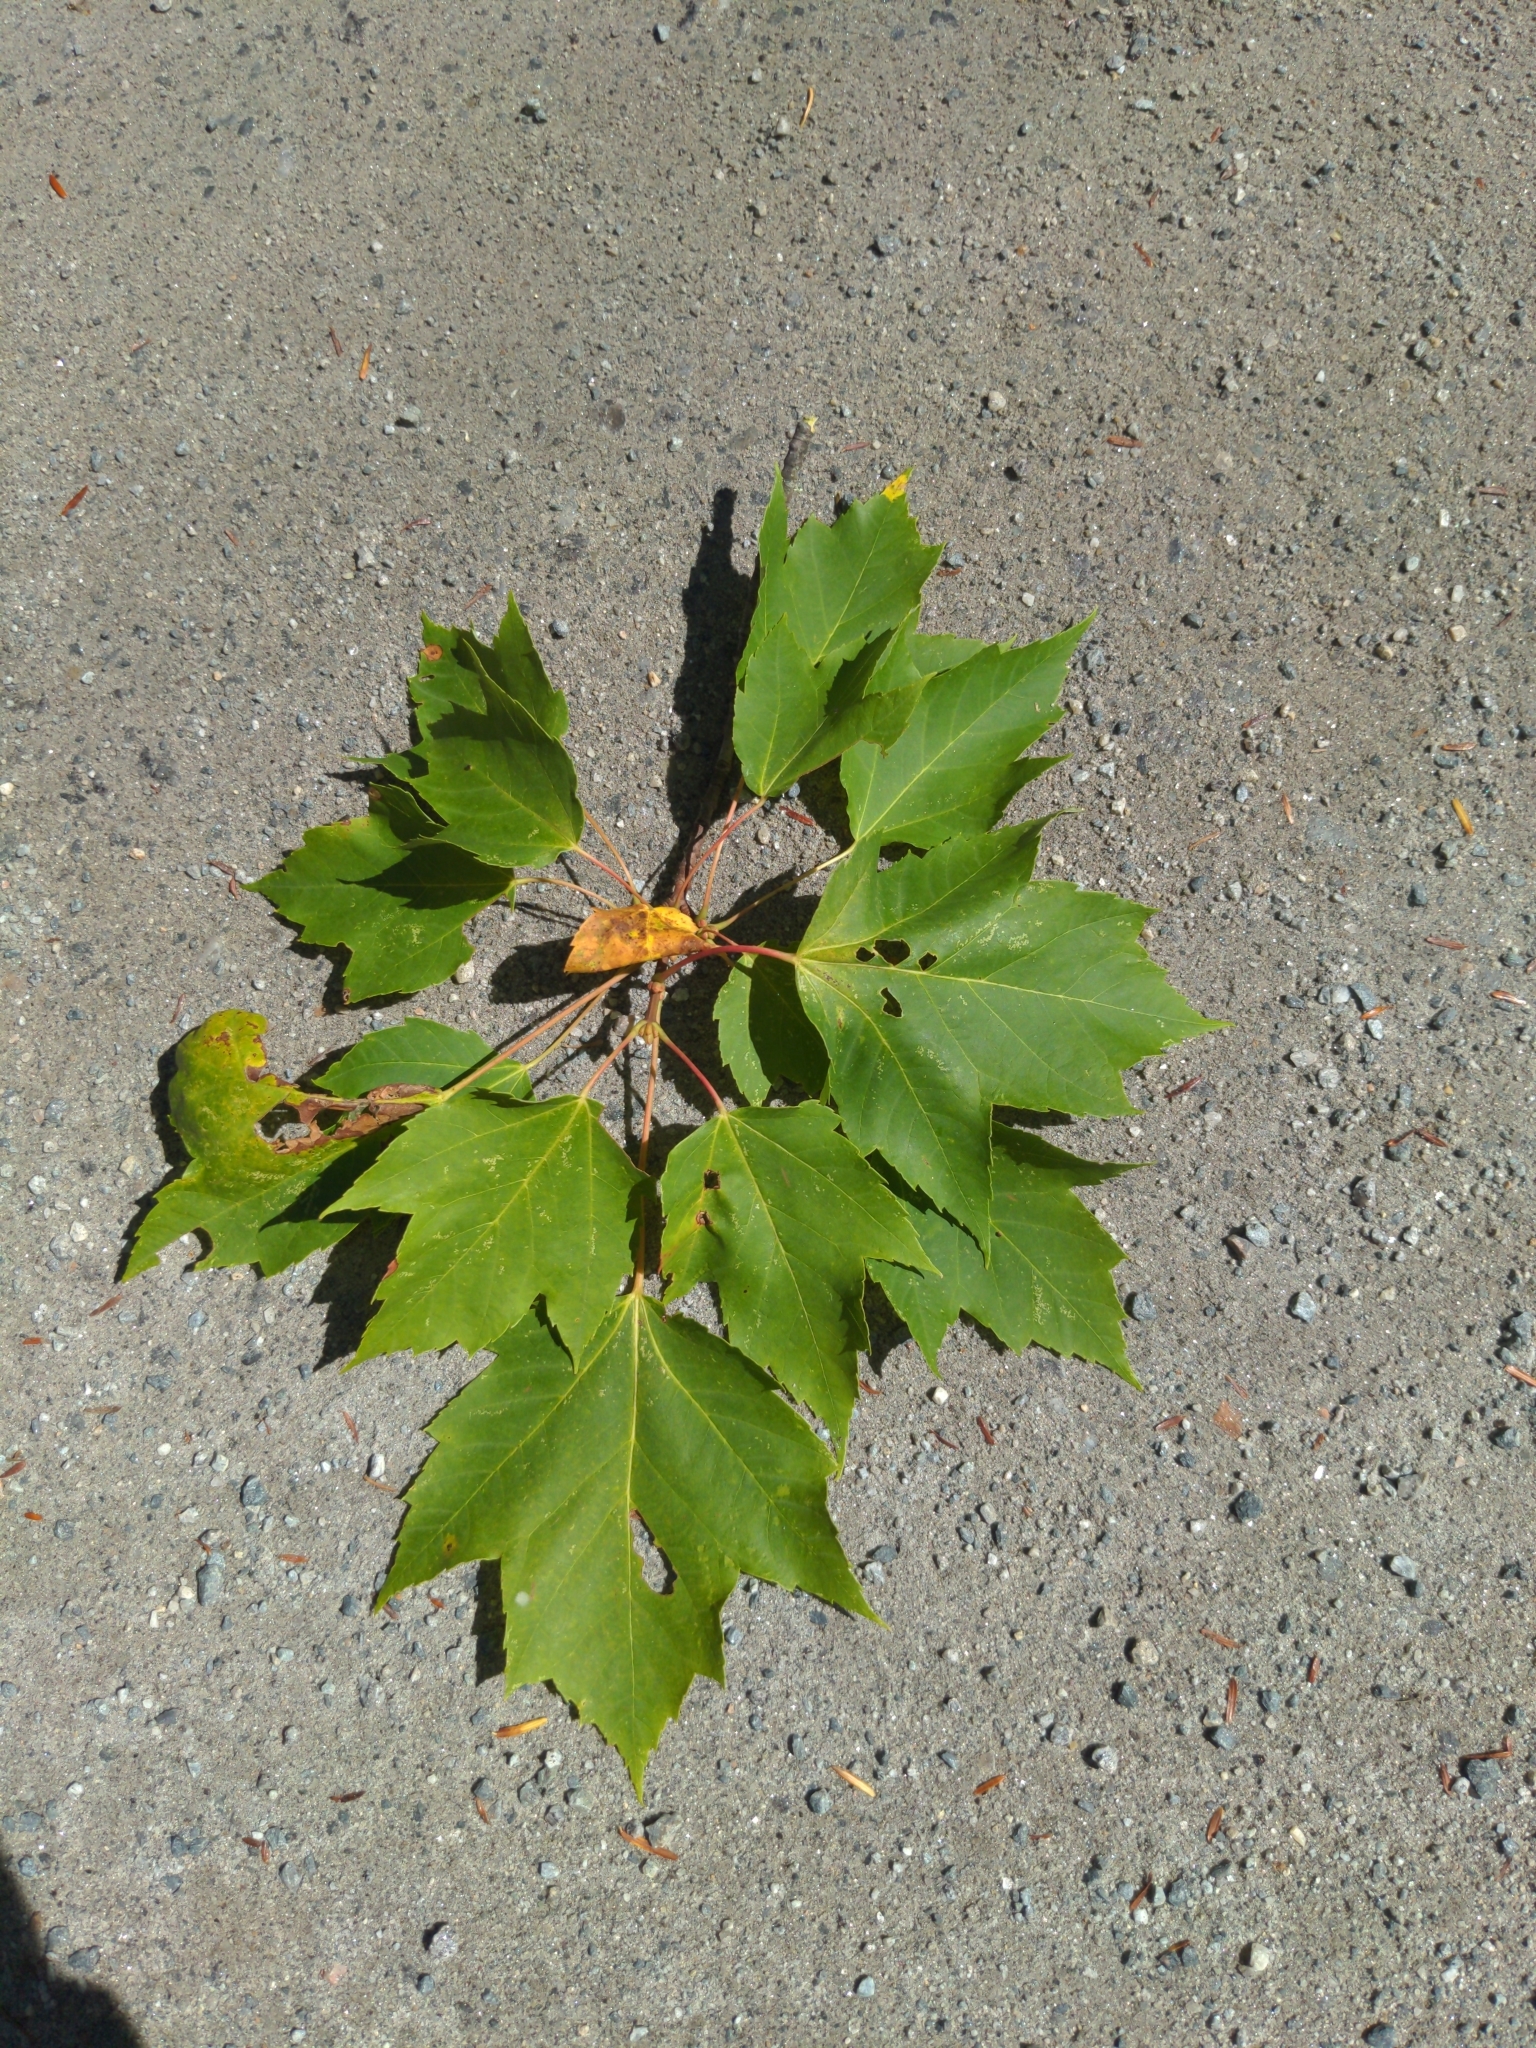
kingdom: Plantae
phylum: Tracheophyta
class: Magnoliopsida
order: Sapindales
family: Sapindaceae
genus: Acer
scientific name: Acer rubrum
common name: Red maple
